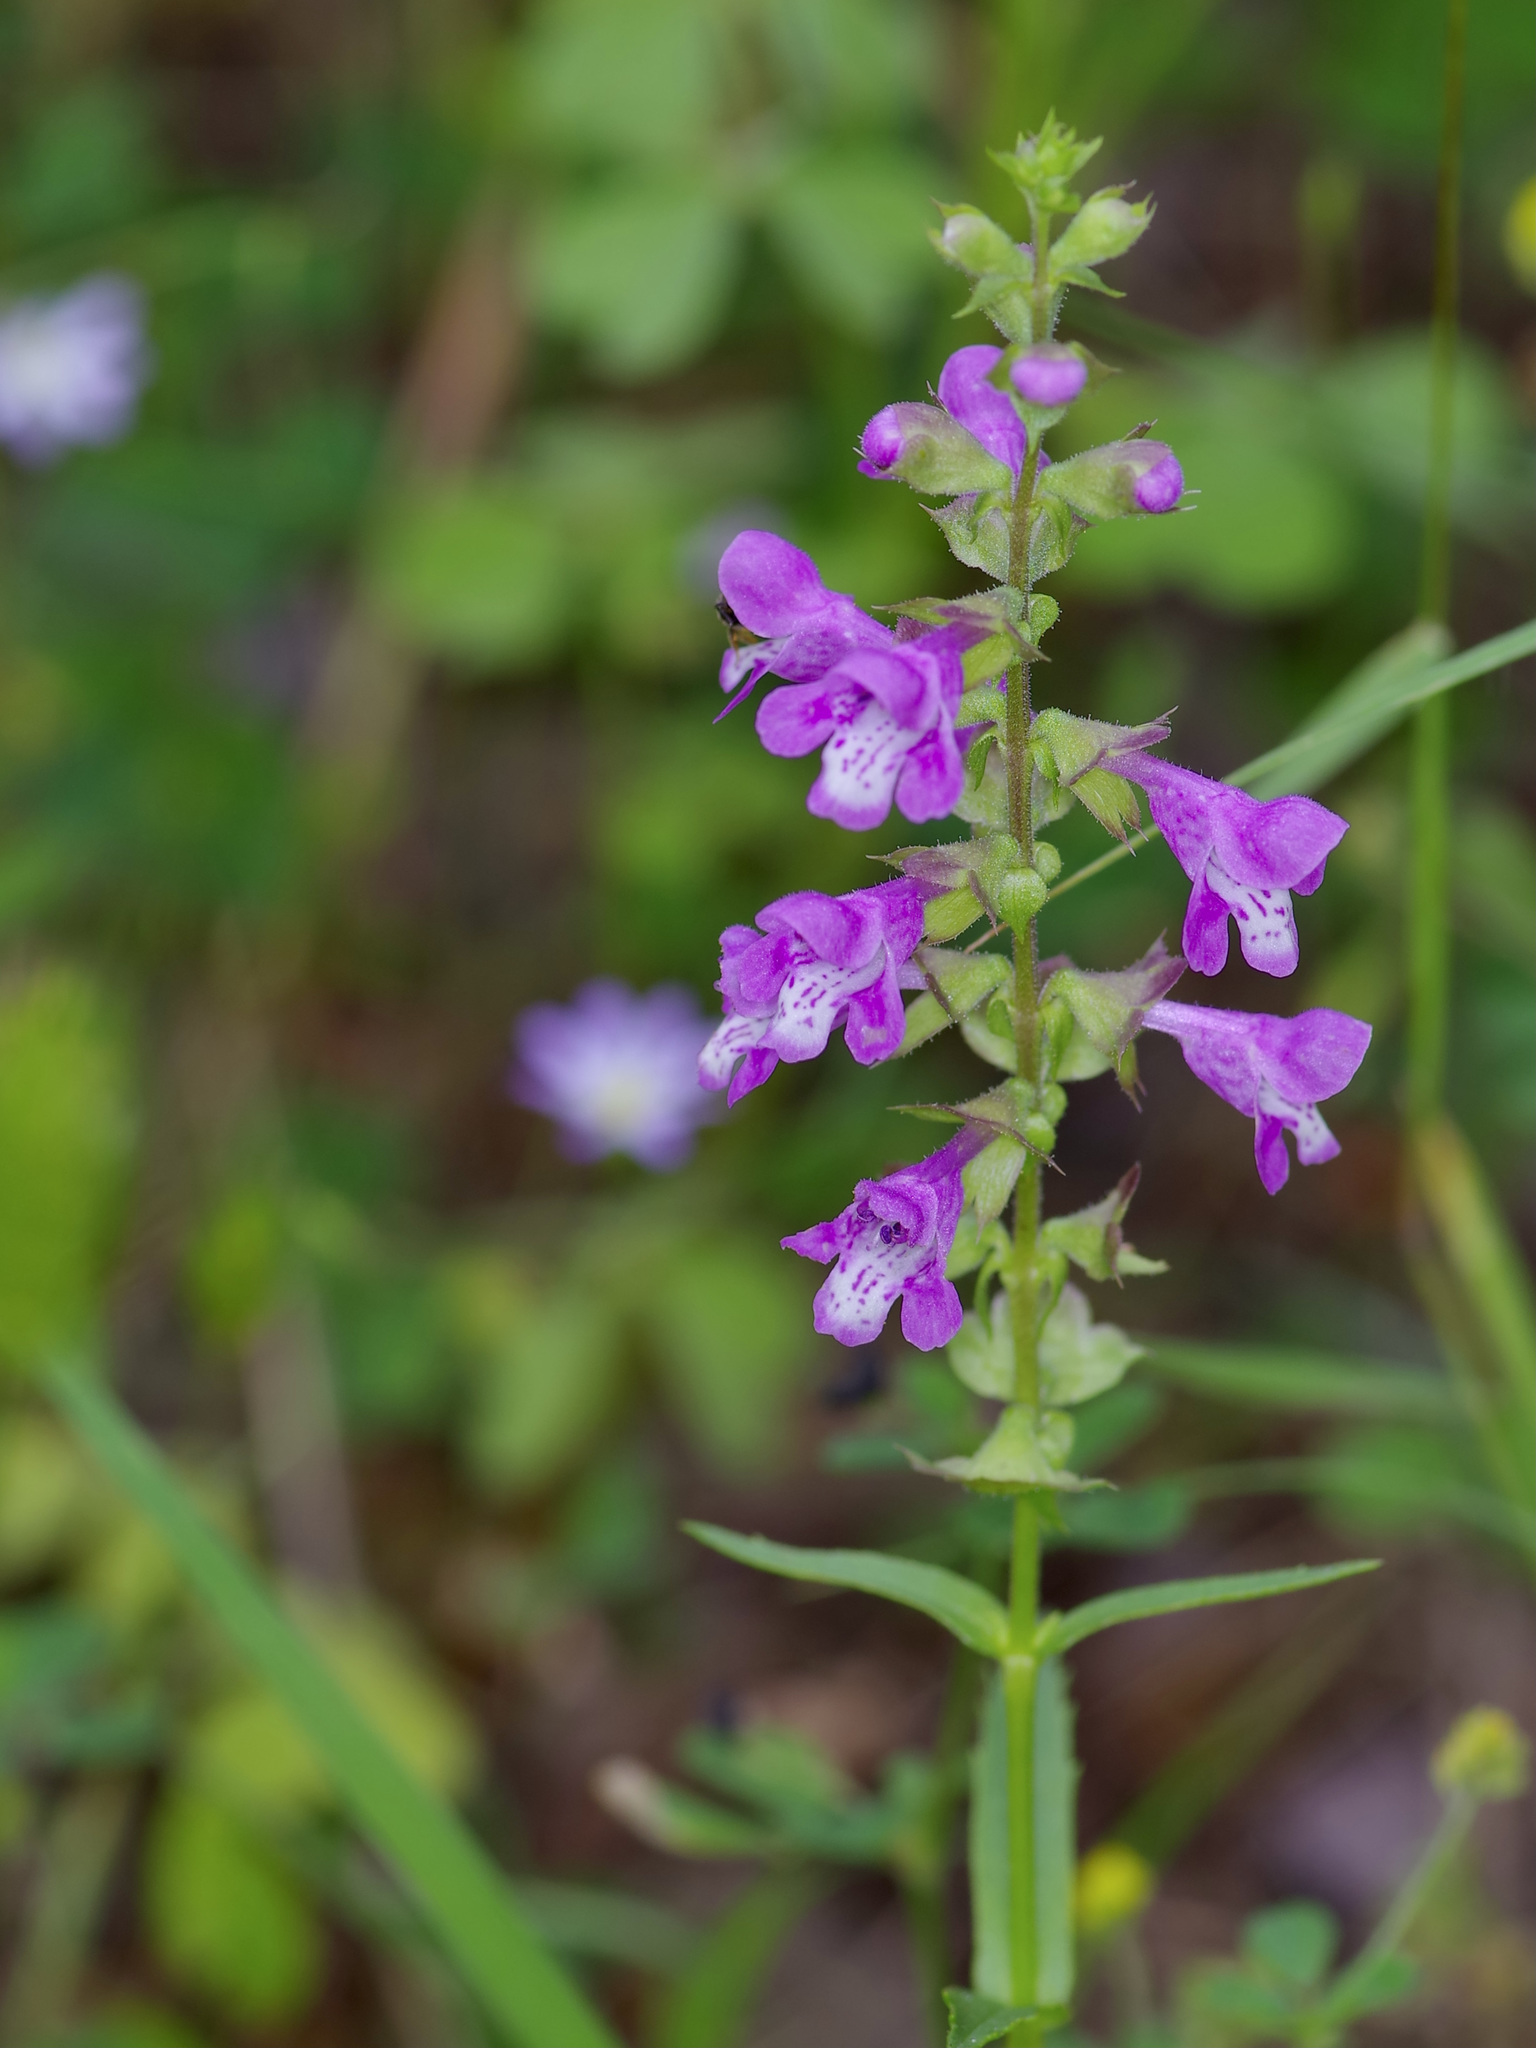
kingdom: Plantae
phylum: Tracheophyta
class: Magnoliopsida
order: Lamiales
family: Lamiaceae
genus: Warnockia
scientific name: Warnockia scutellarioides
